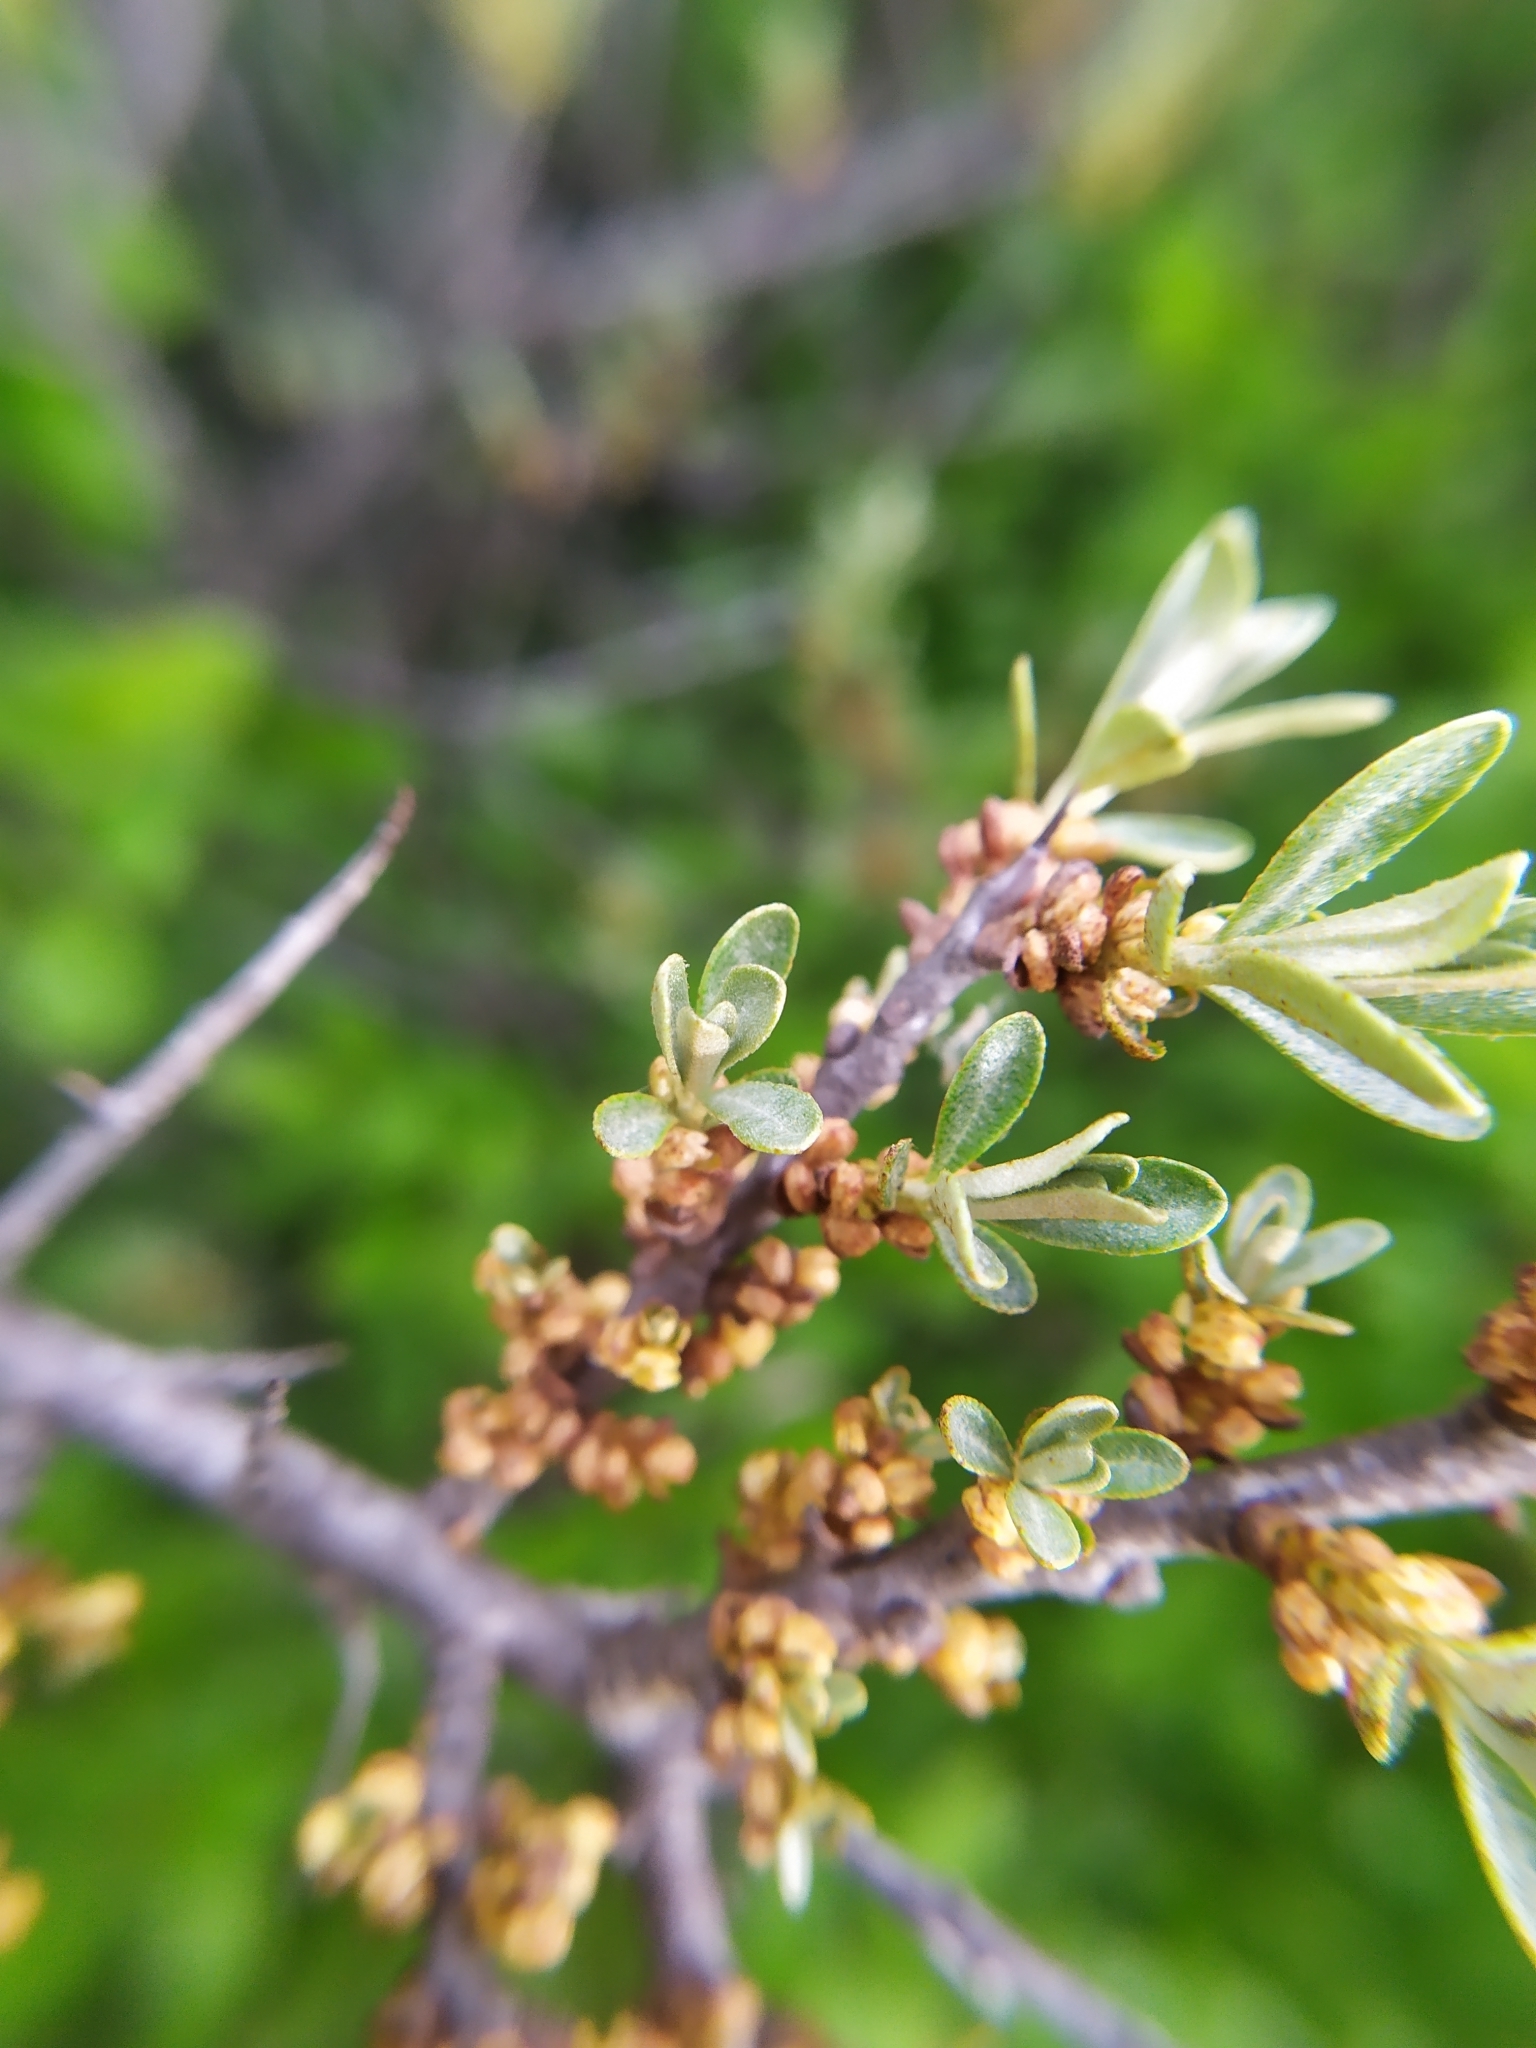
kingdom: Plantae
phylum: Tracheophyta
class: Magnoliopsida
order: Rosales
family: Elaeagnaceae
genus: Hippophae
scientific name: Hippophae rhamnoides
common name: Sea-buckthorn
